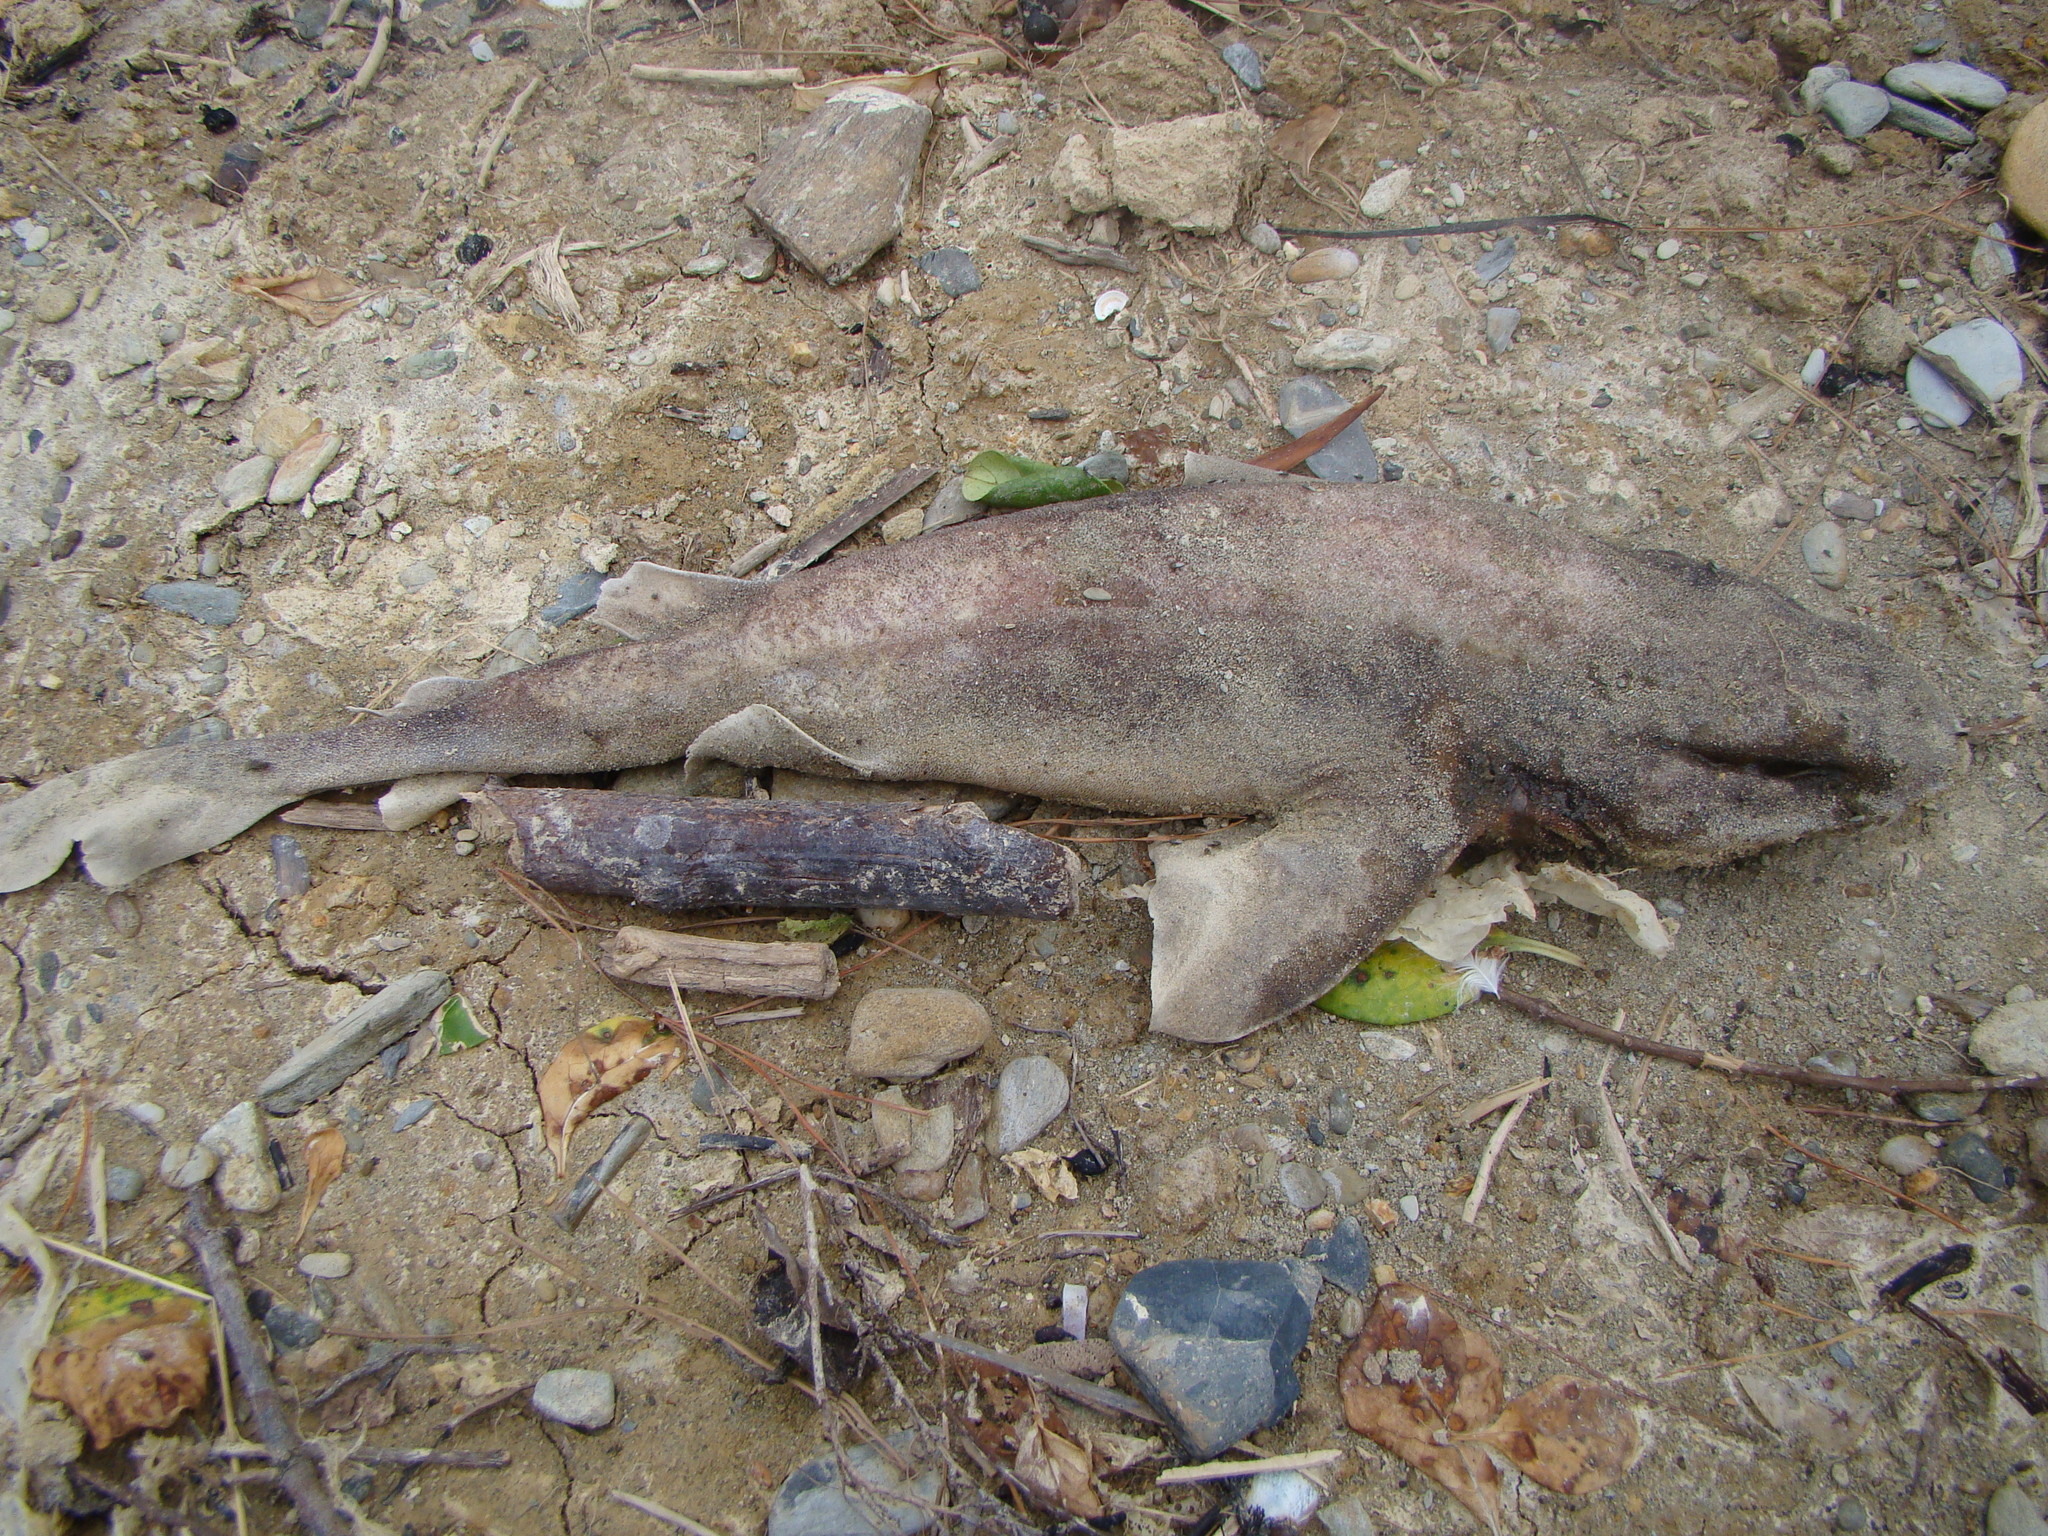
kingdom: Animalia
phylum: Chordata
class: Elasmobranchii
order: Carcharhiniformes
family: Scyliorhinidae
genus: Cephaloscyllium
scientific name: Cephaloscyllium isabellum
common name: Carpet shark
